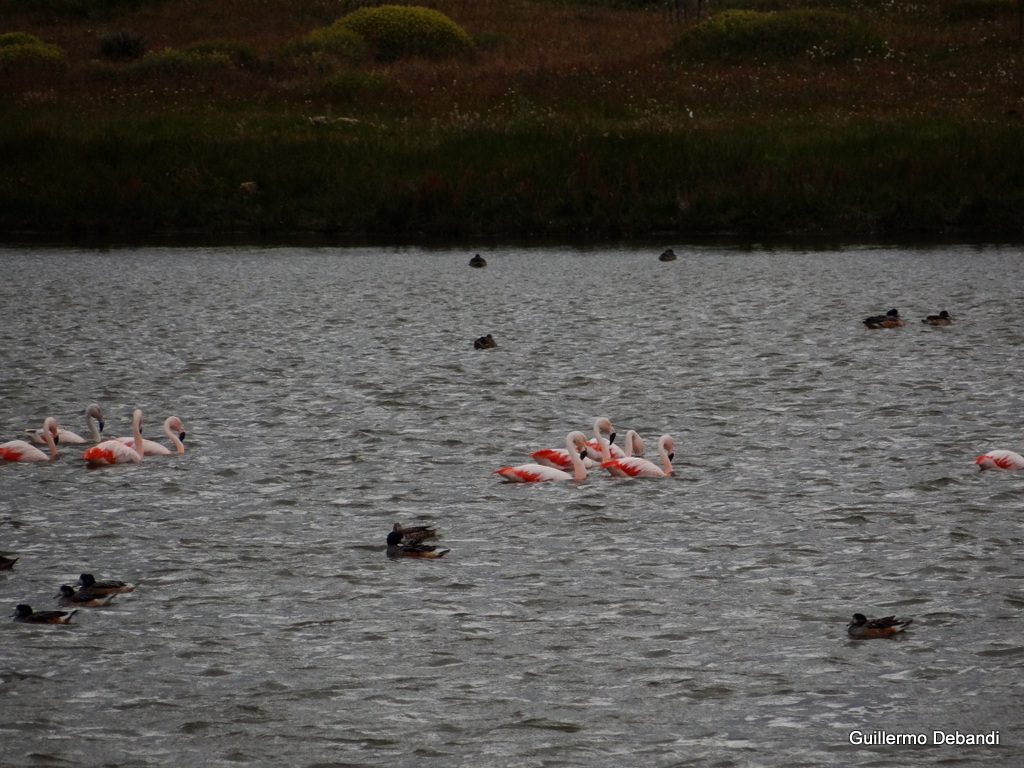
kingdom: Animalia
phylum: Chordata
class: Aves
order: Phoenicopteriformes
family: Phoenicopteridae
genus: Phoenicopterus
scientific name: Phoenicopterus chilensis
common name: Chilean flamingo
